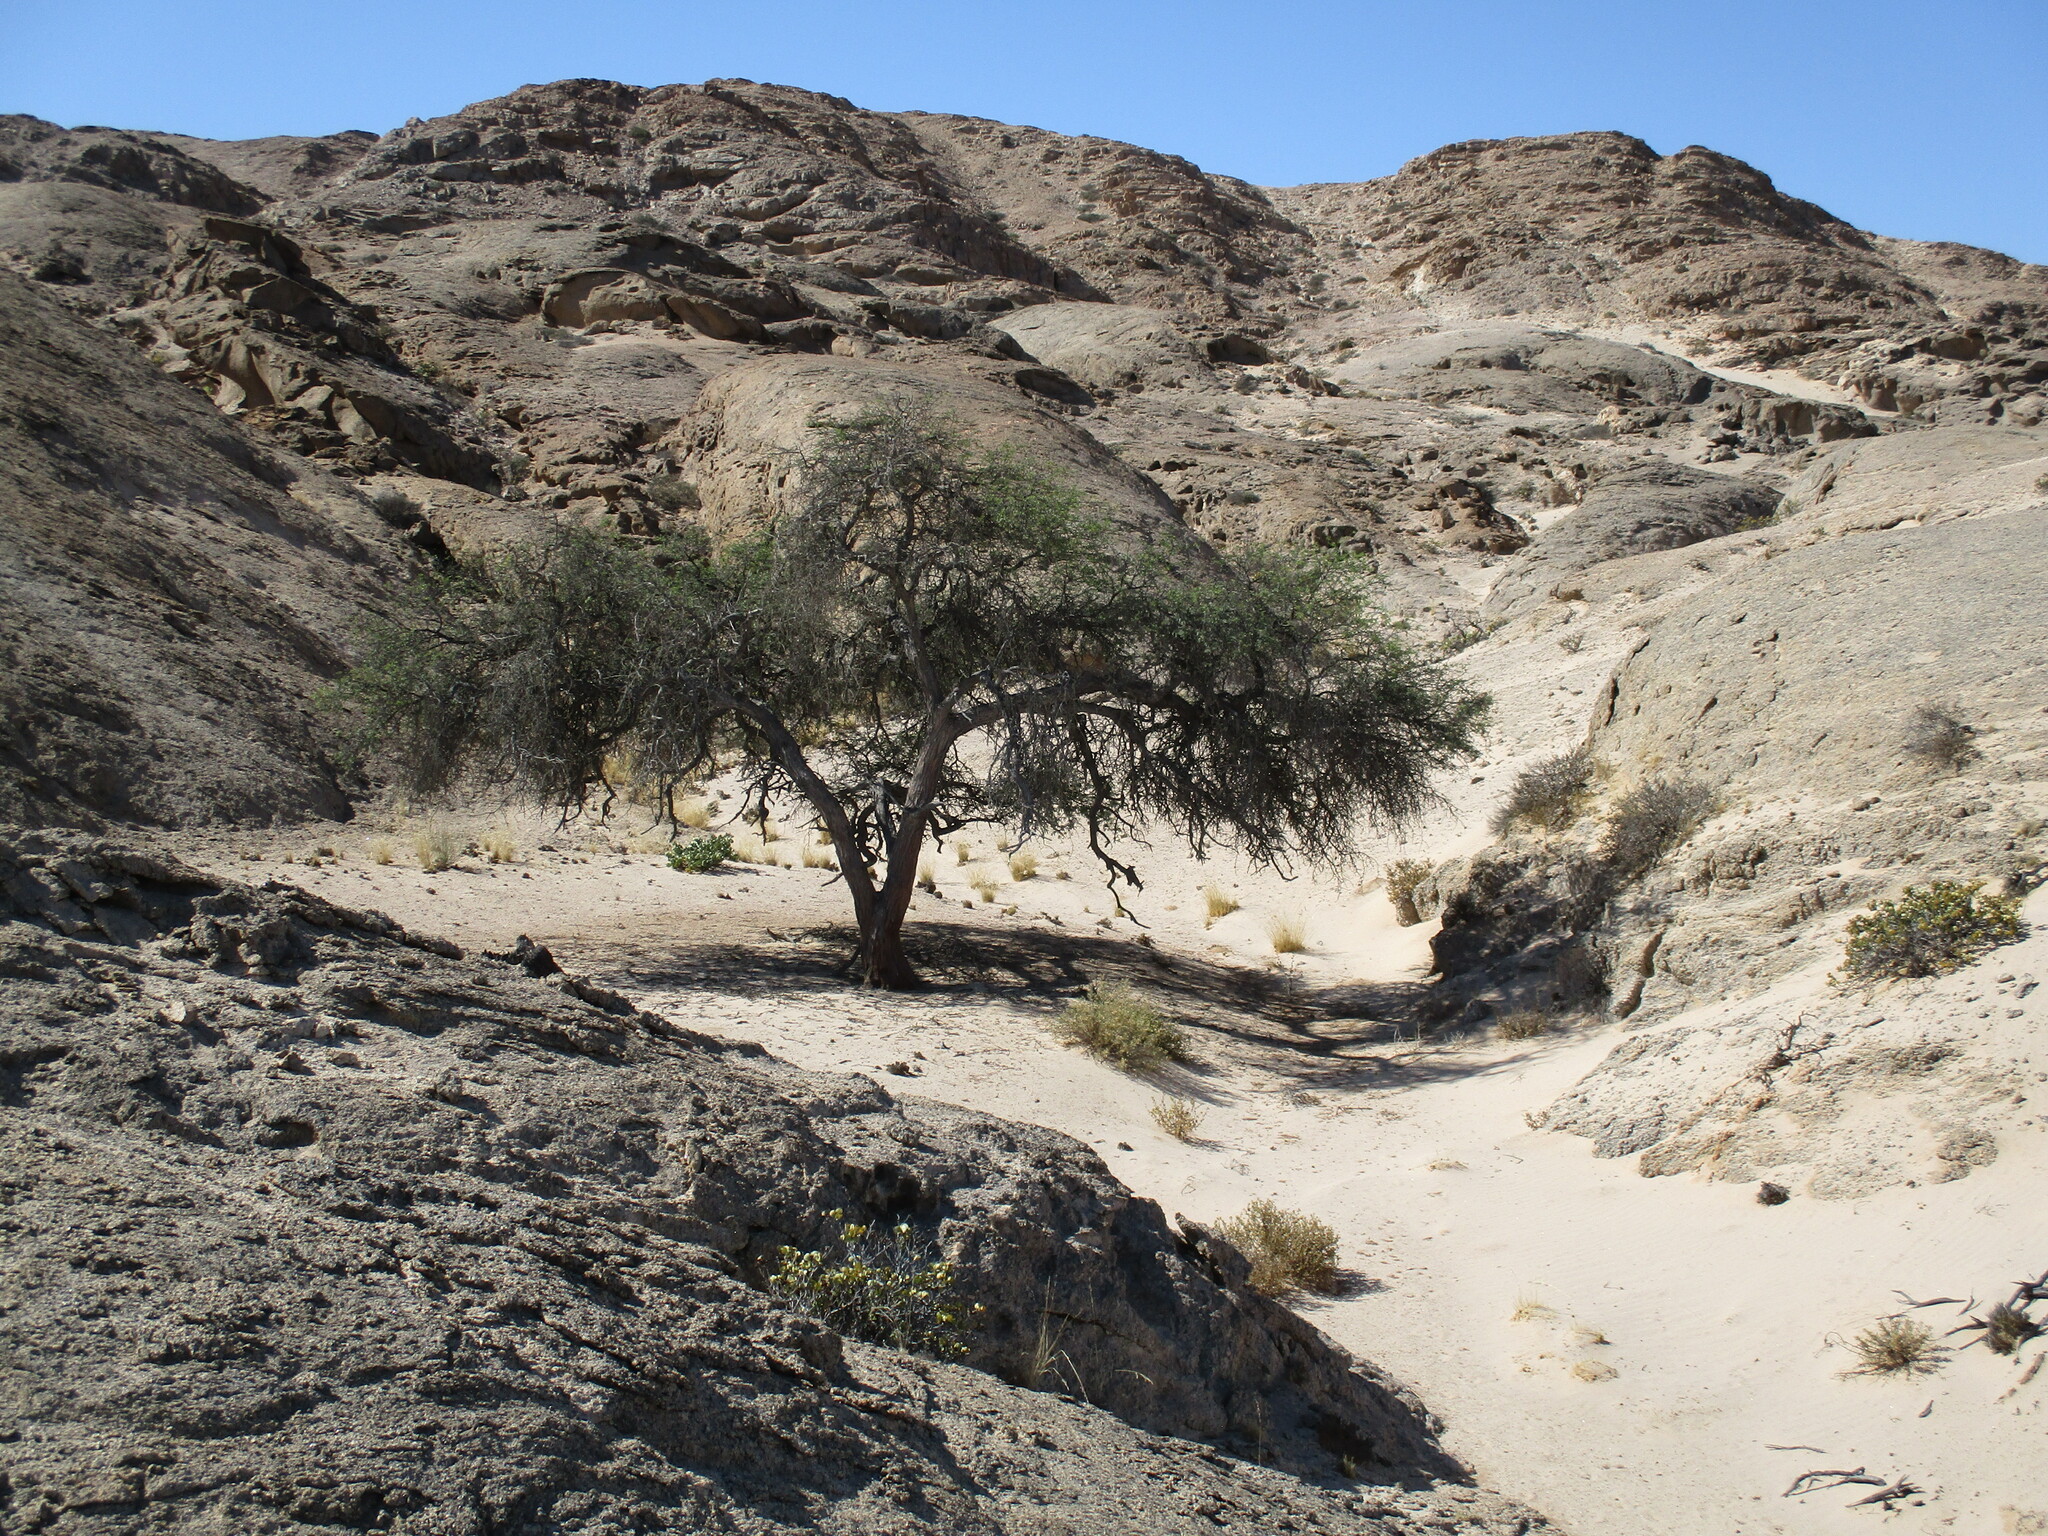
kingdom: Plantae
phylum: Tracheophyta
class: Magnoliopsida
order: Fabales
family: Fabaceae
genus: Vachellia
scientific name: Vachellia erioloba
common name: Camel thorn
